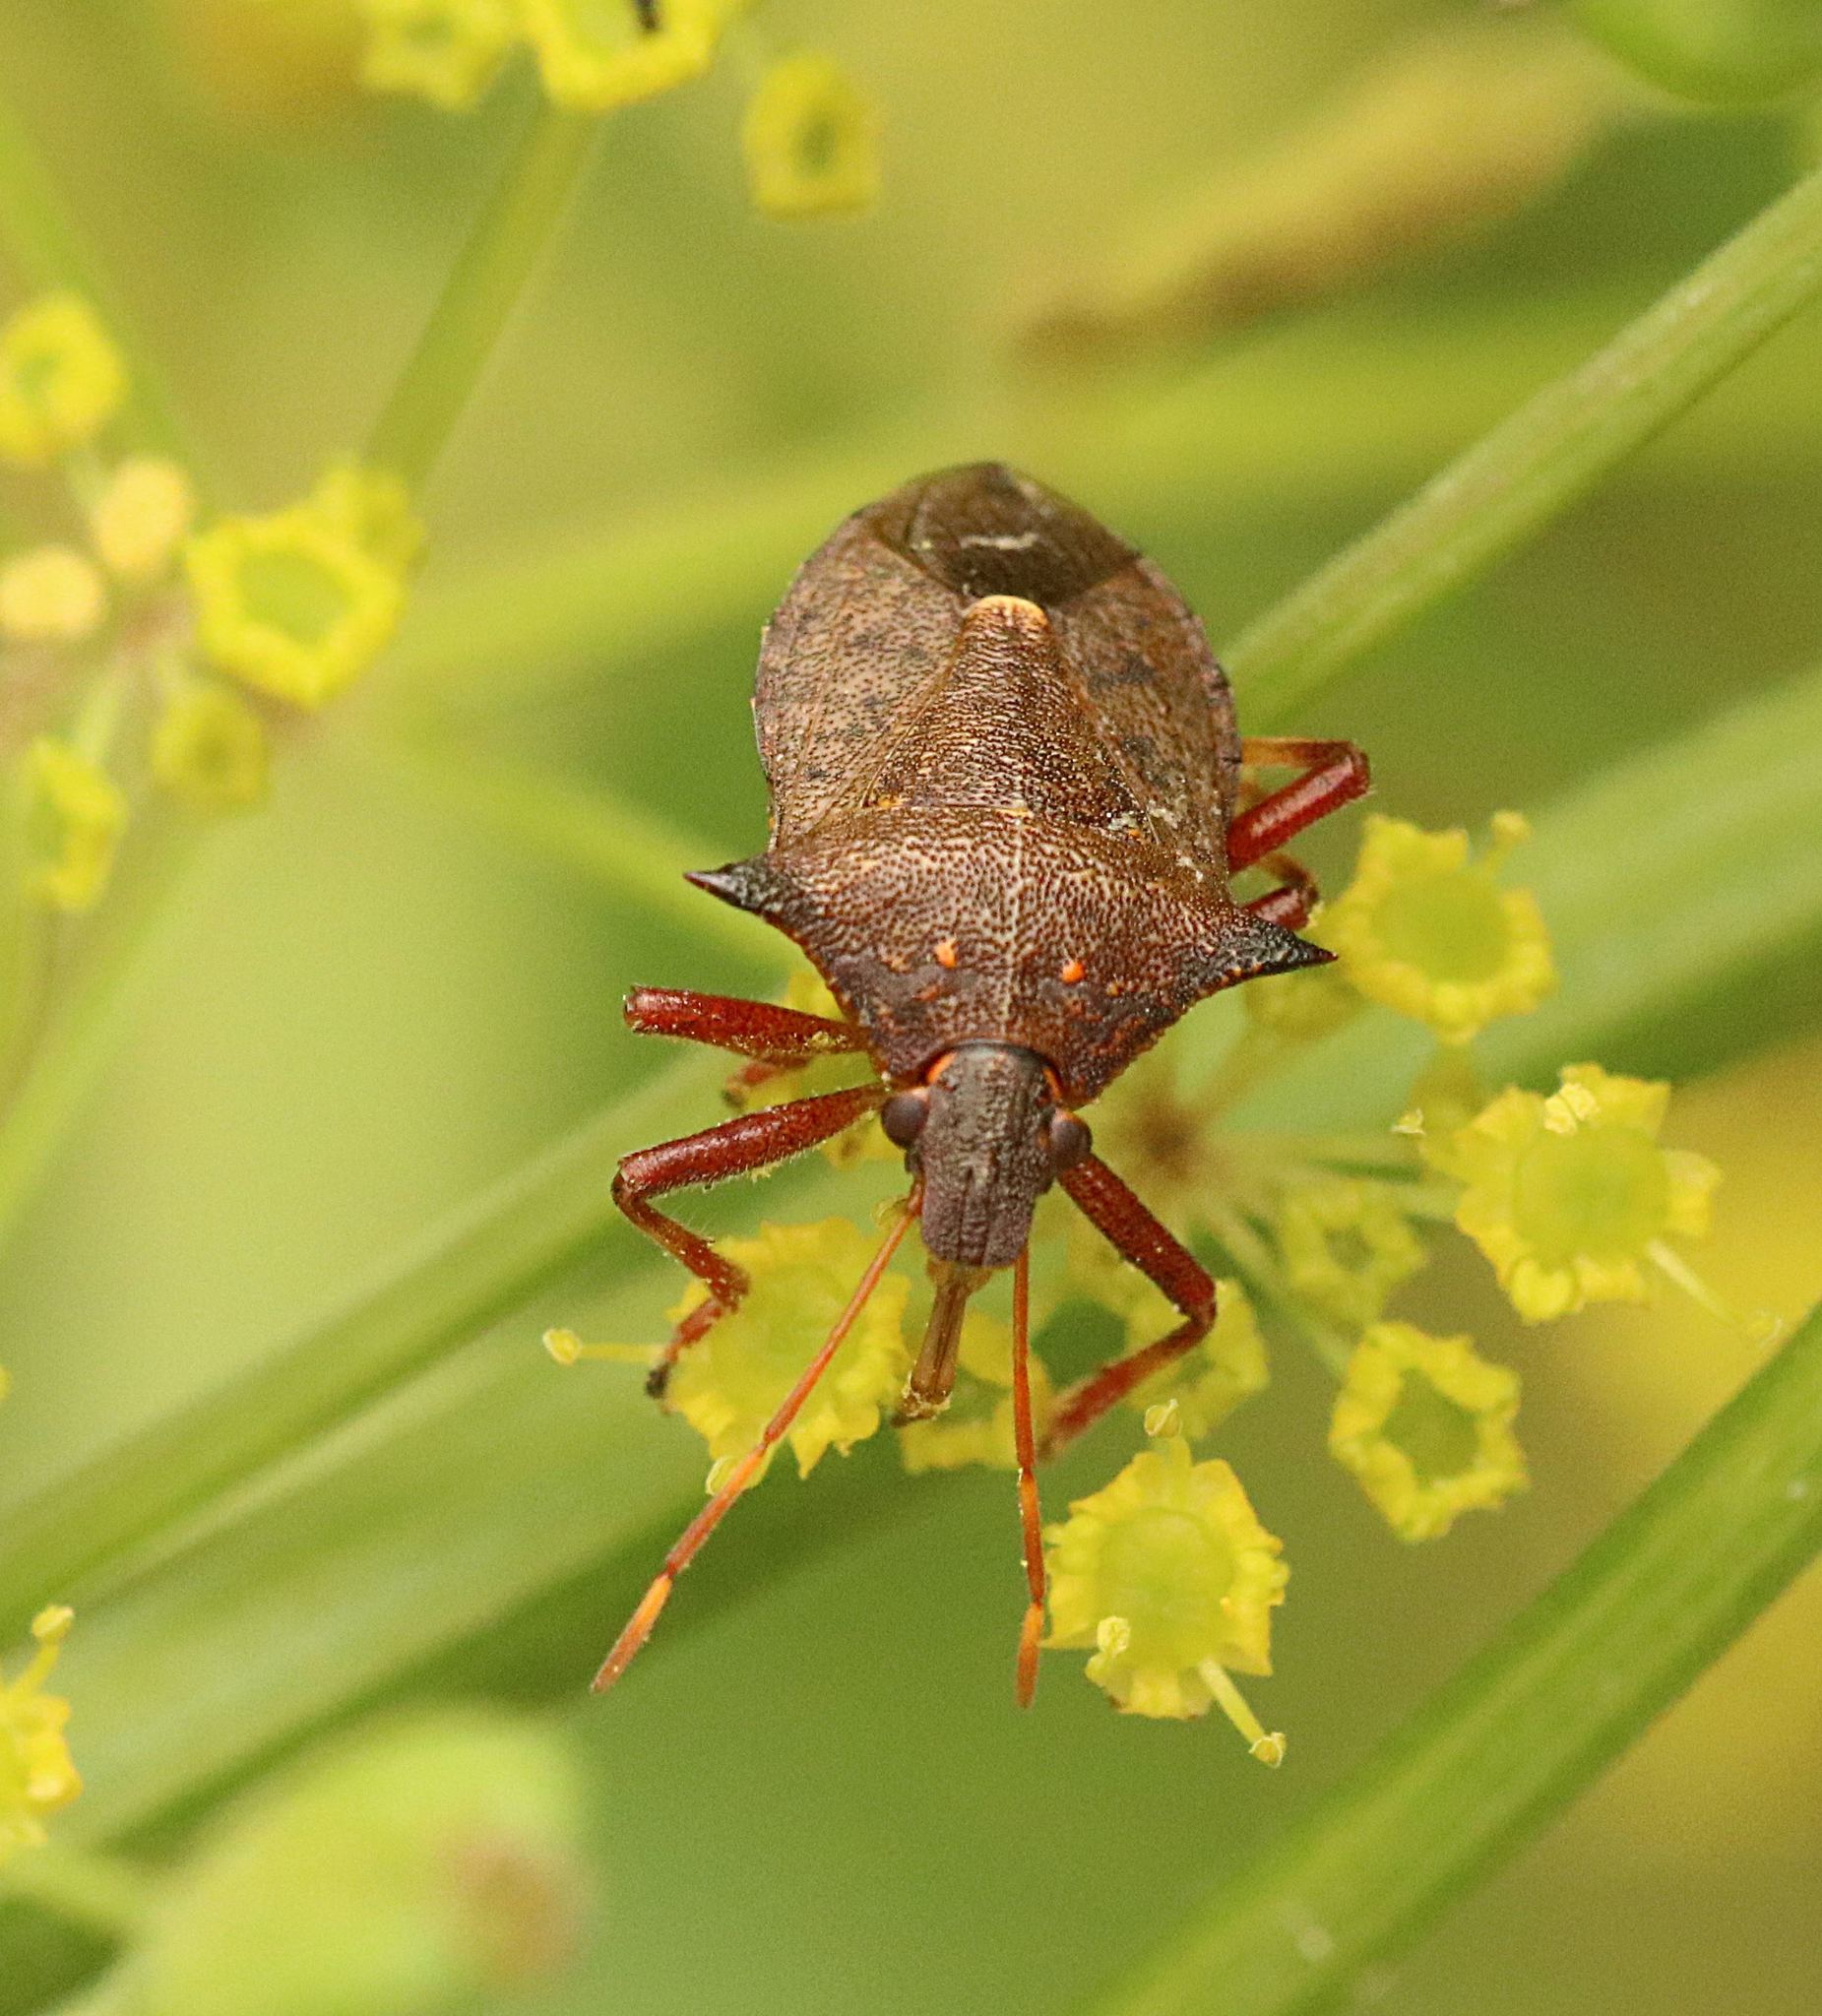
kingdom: Animalia
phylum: Arthropoda
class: Insecta
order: Hemiptera
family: Pentatomidae
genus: Picromerus
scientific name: Picromerus bidens
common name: Spiked shieldbug
